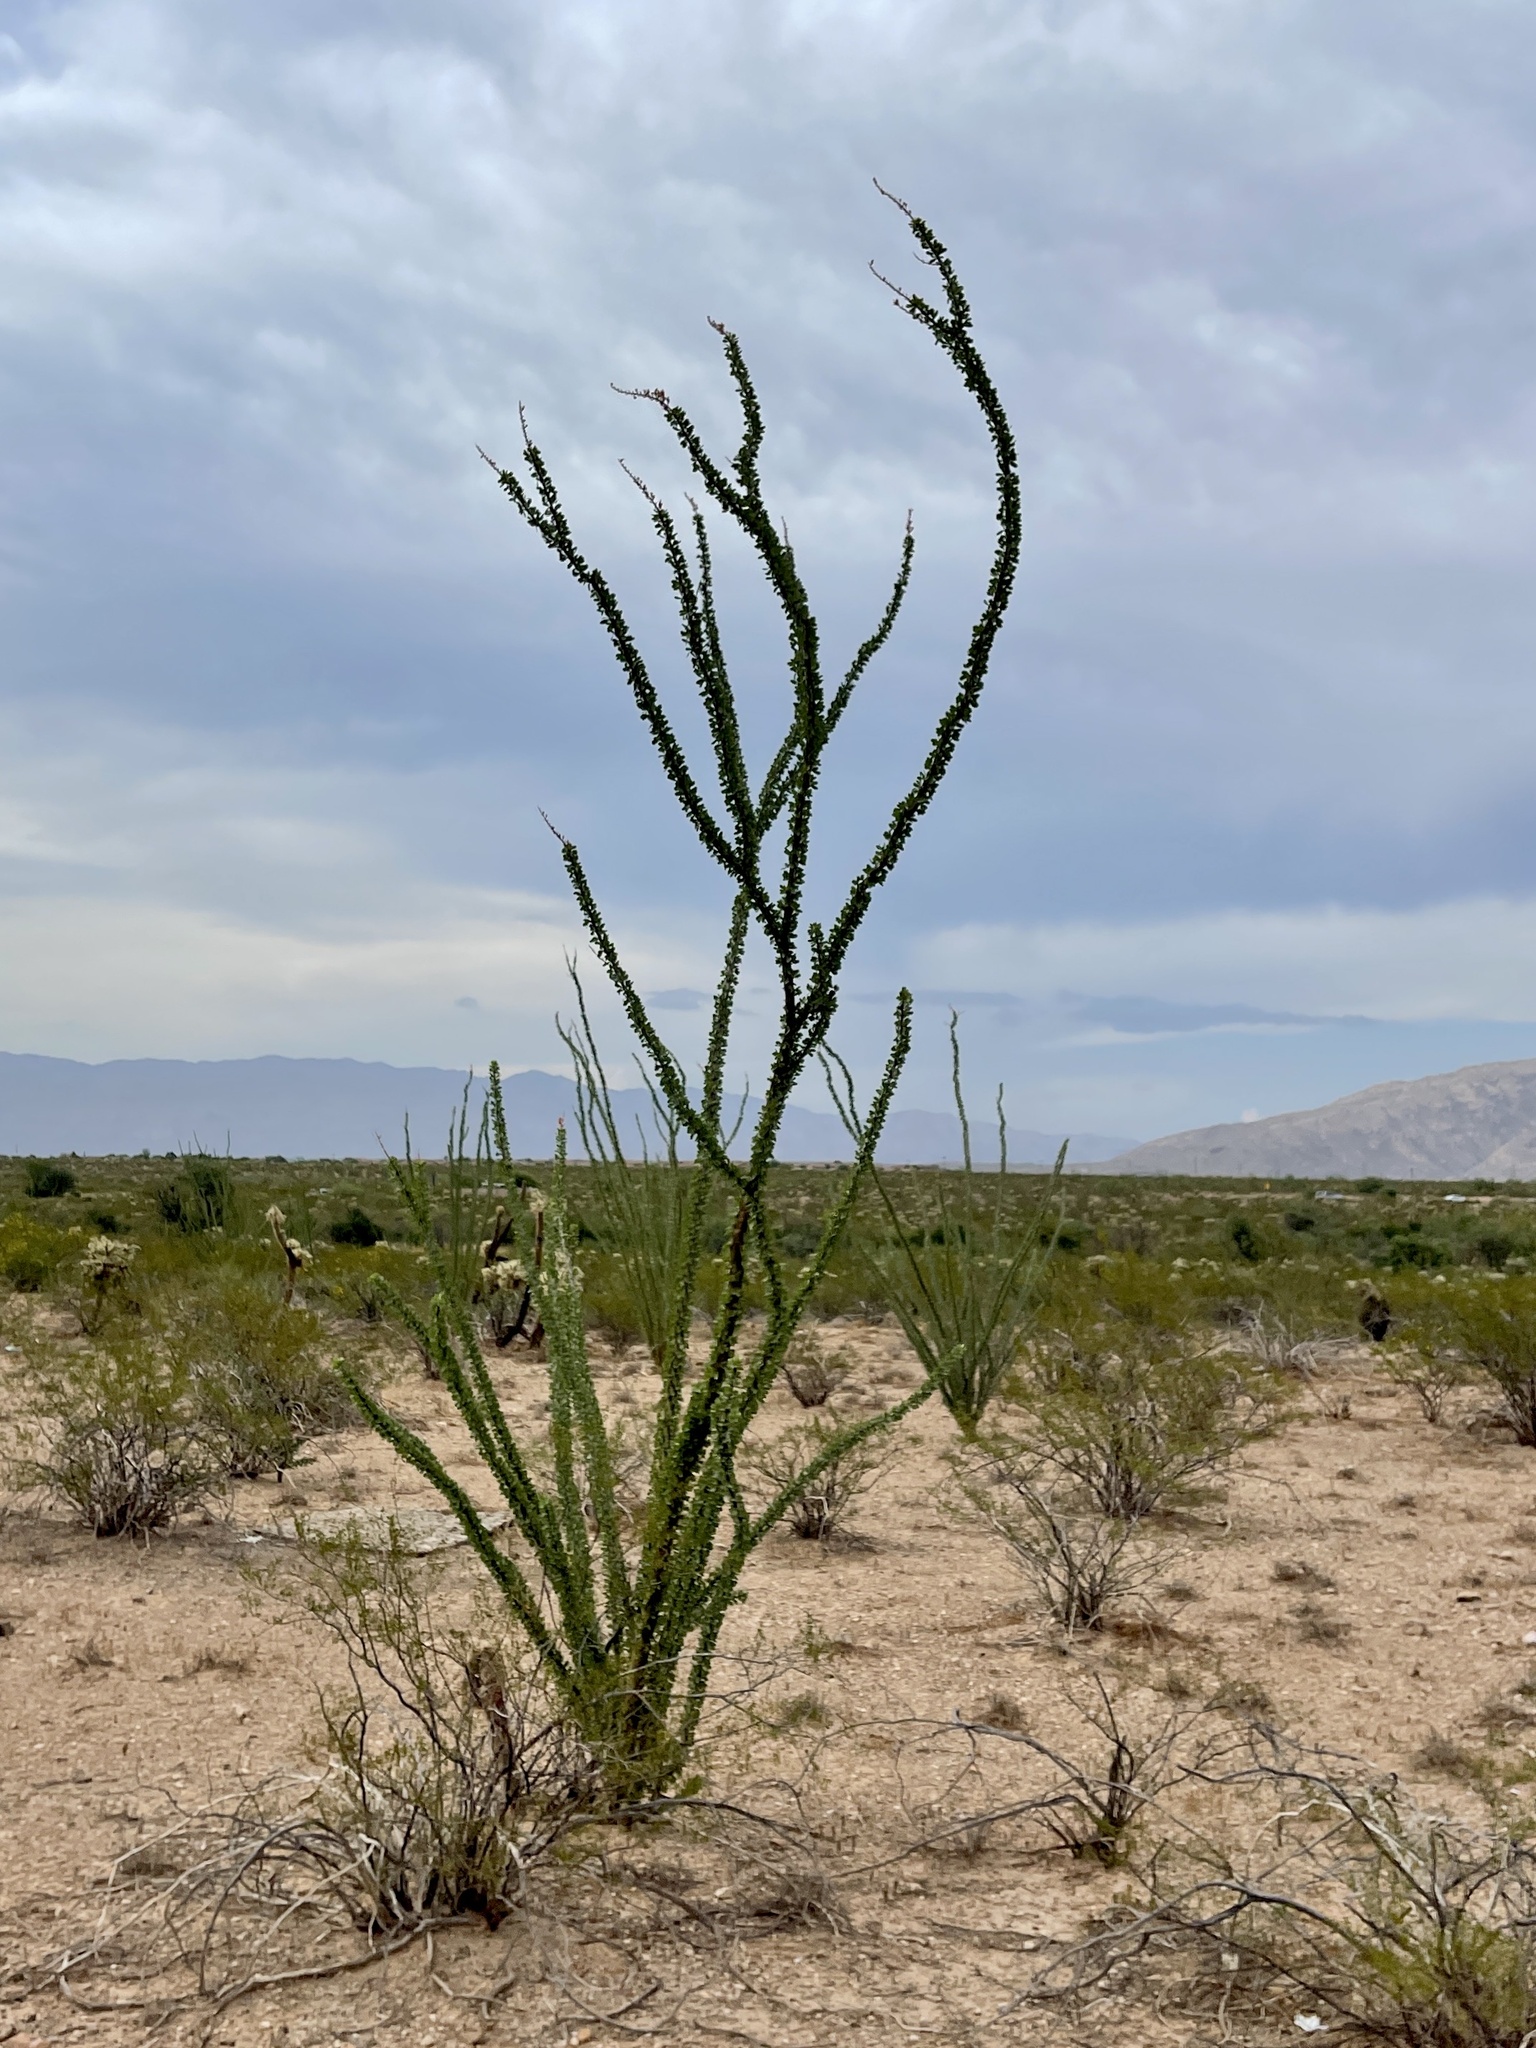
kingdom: Plantae
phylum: Tracheophyta
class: Magnoliopsida
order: Ericales
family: Fouquieriaceae
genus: Fouquieria
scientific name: Fouquieria splendens
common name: Vine-cactus
